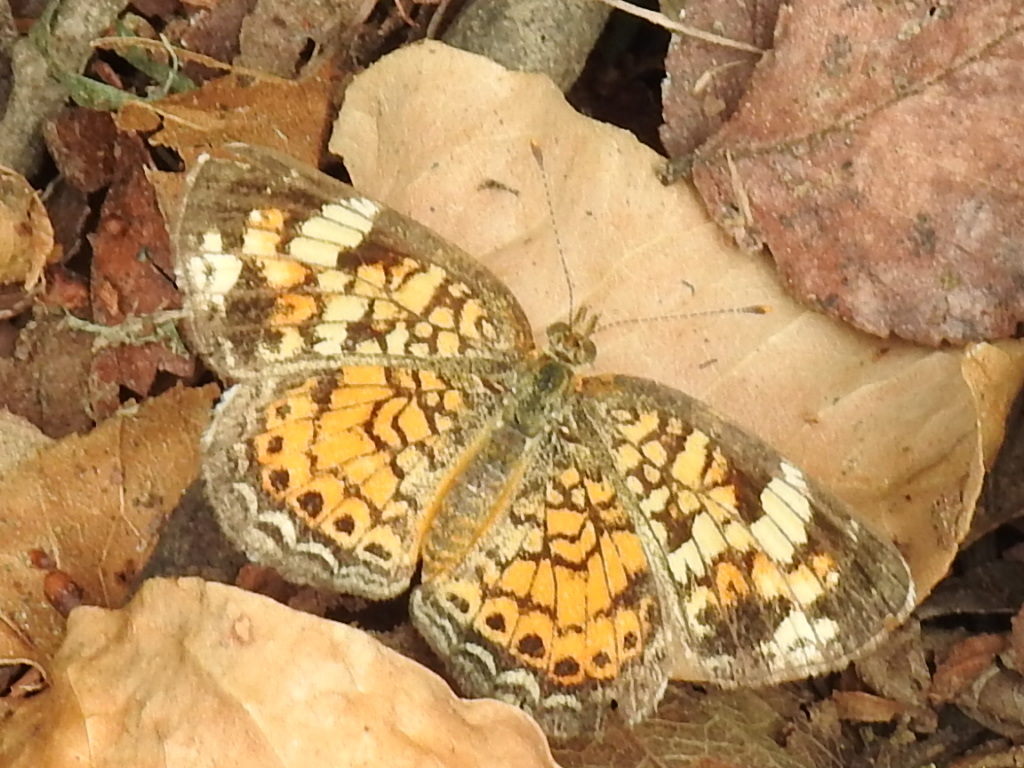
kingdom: Animalia
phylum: Arthropoda
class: Insecta
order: Lepidoptera
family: Nymphalidae
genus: Phyciodes
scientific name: Phyciodes tharos
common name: Pearl crescent
